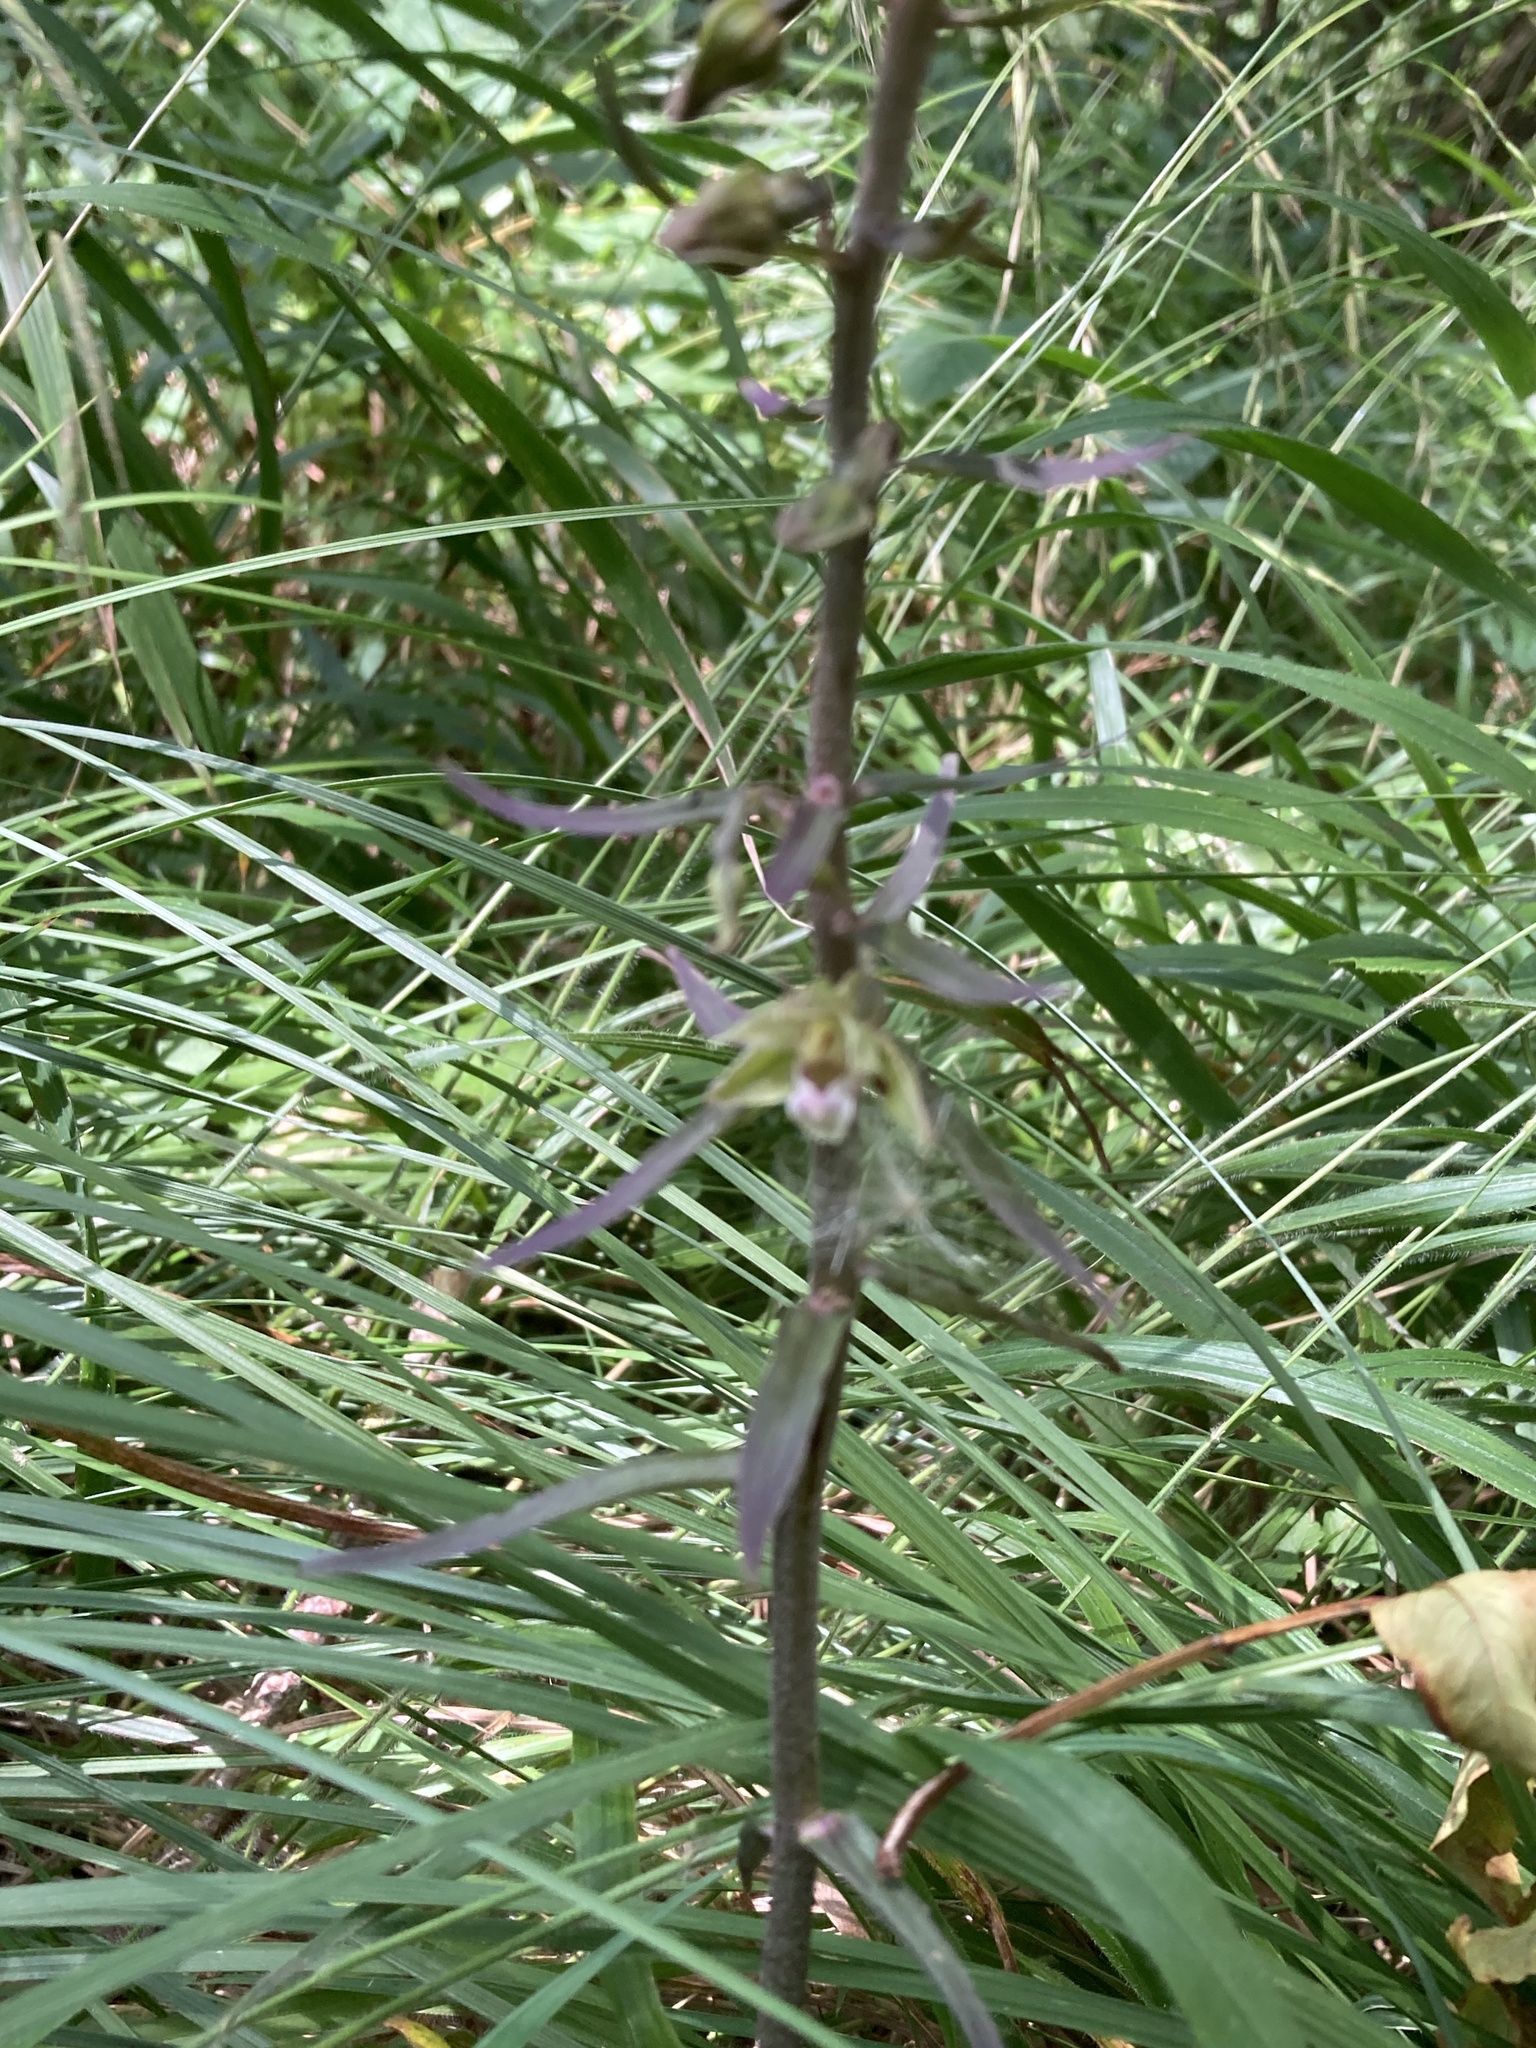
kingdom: Plantae
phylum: Tracheophyta
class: Liliopsida
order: Asparagales
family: Orchidaceae
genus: Epipactis
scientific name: Epipactis purpurata
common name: Violet helleborine
